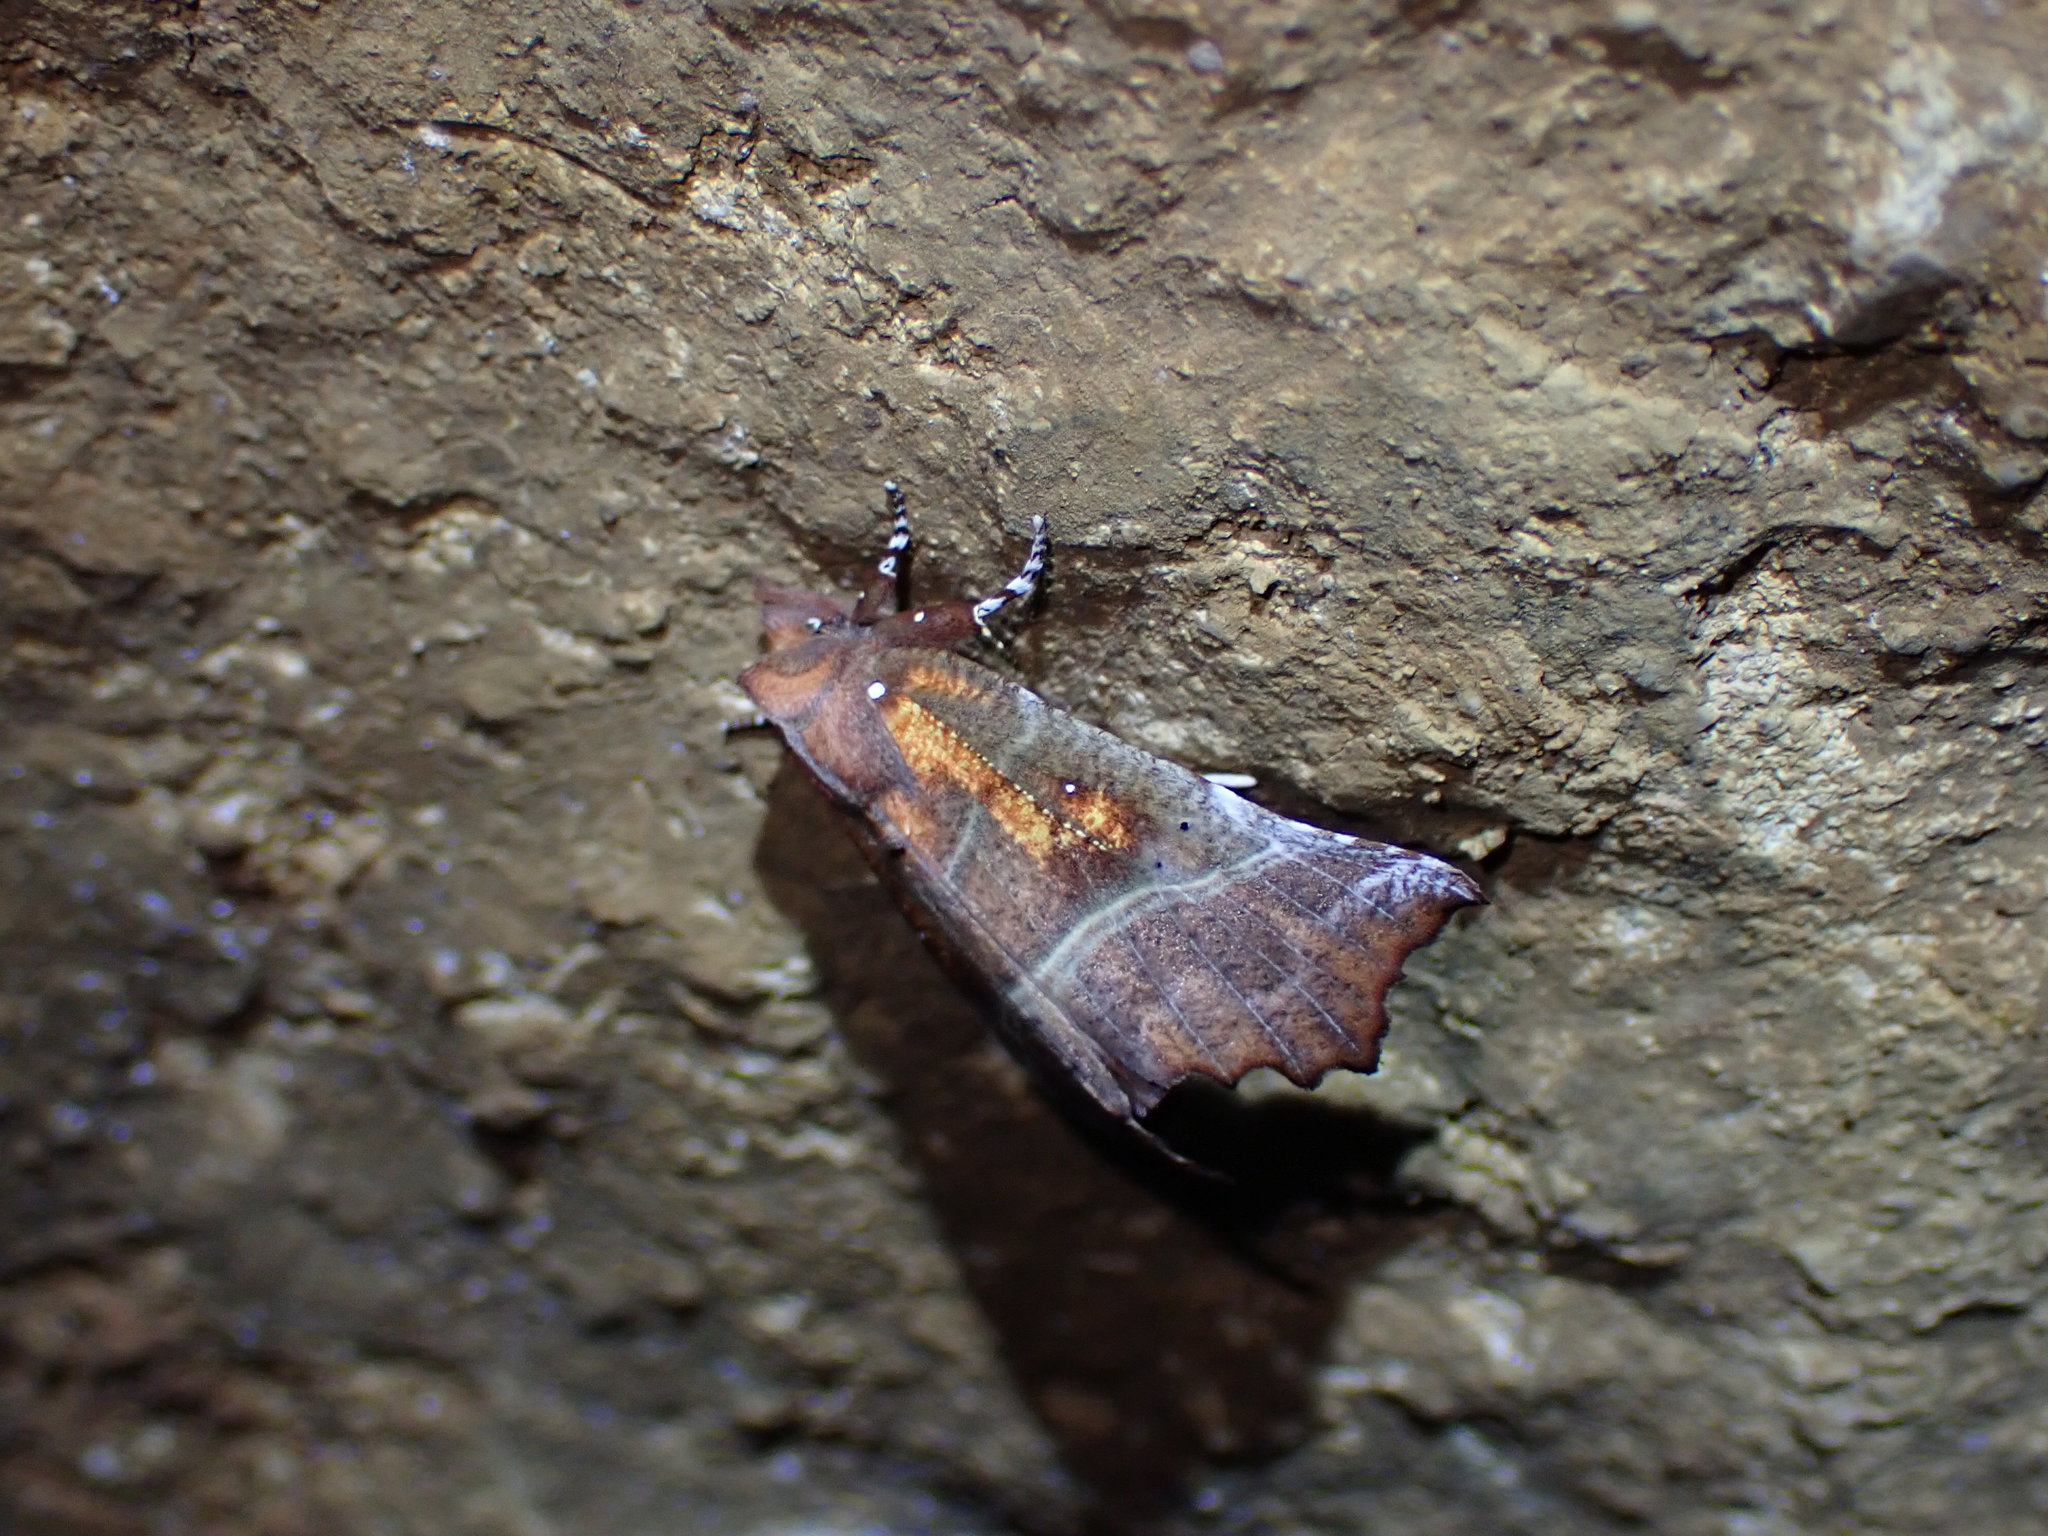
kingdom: Animalia
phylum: Arthropoda
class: Insecta
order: Lepidoptera
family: Erebidae
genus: Scoliopteryx
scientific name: Scoliopteryx libatrix
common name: Herald
